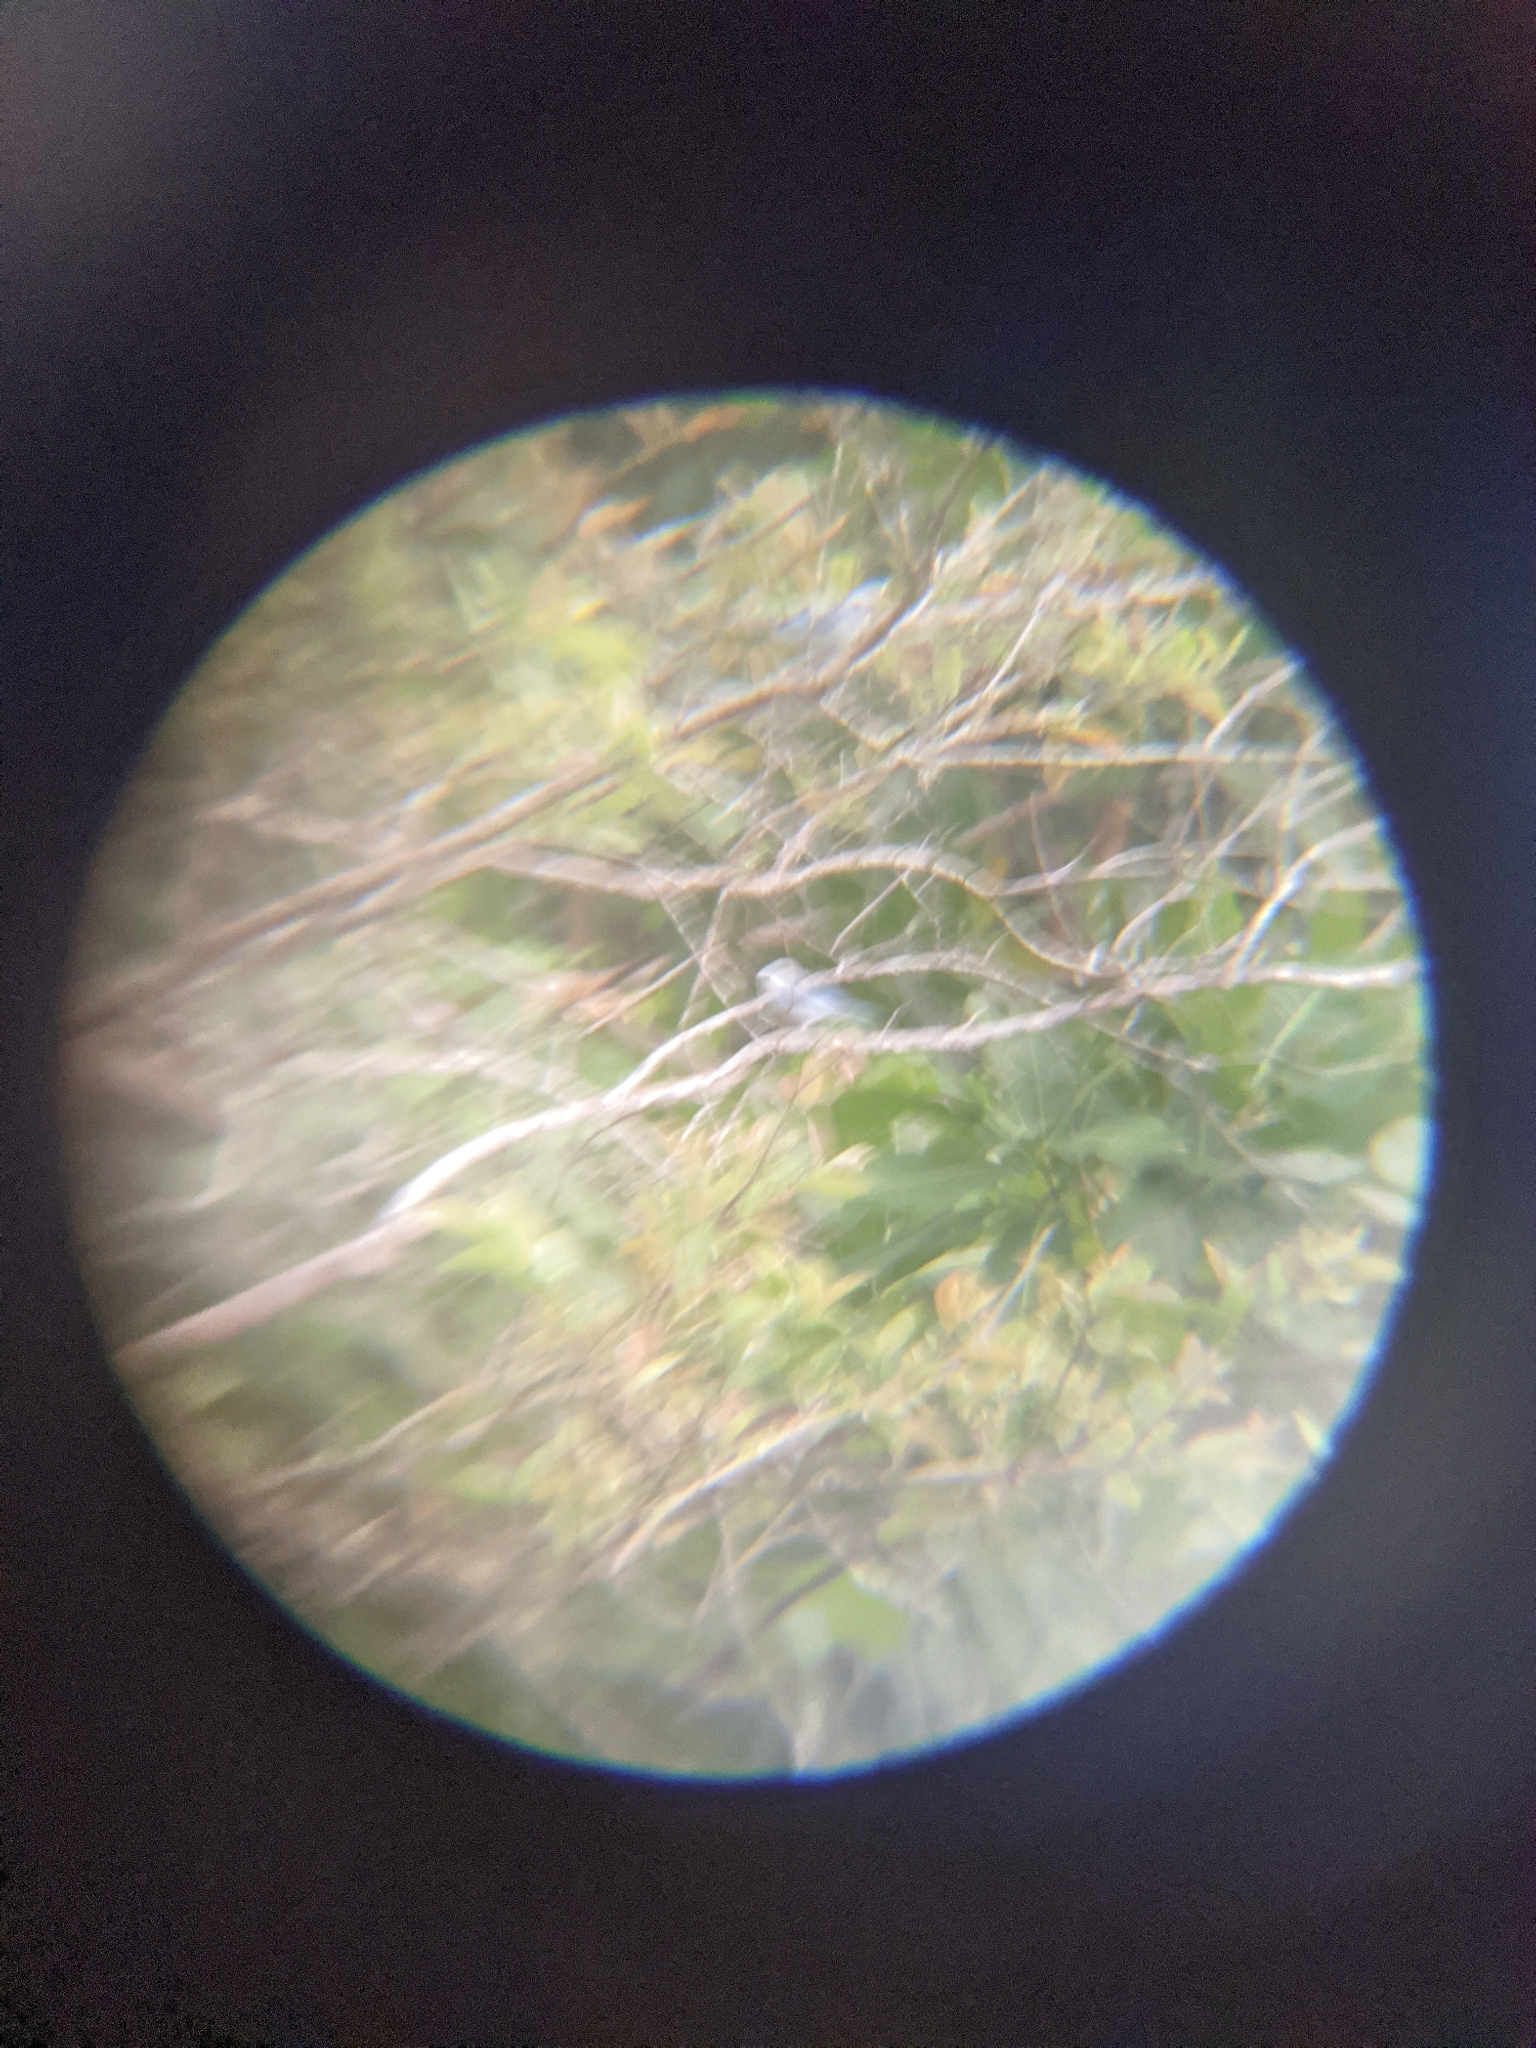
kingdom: Animalia
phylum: Chordata
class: Aves
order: Passeriformes
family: Thraupidae
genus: Thraupis
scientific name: Thraupis episcopus
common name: Blue-grey tanager
